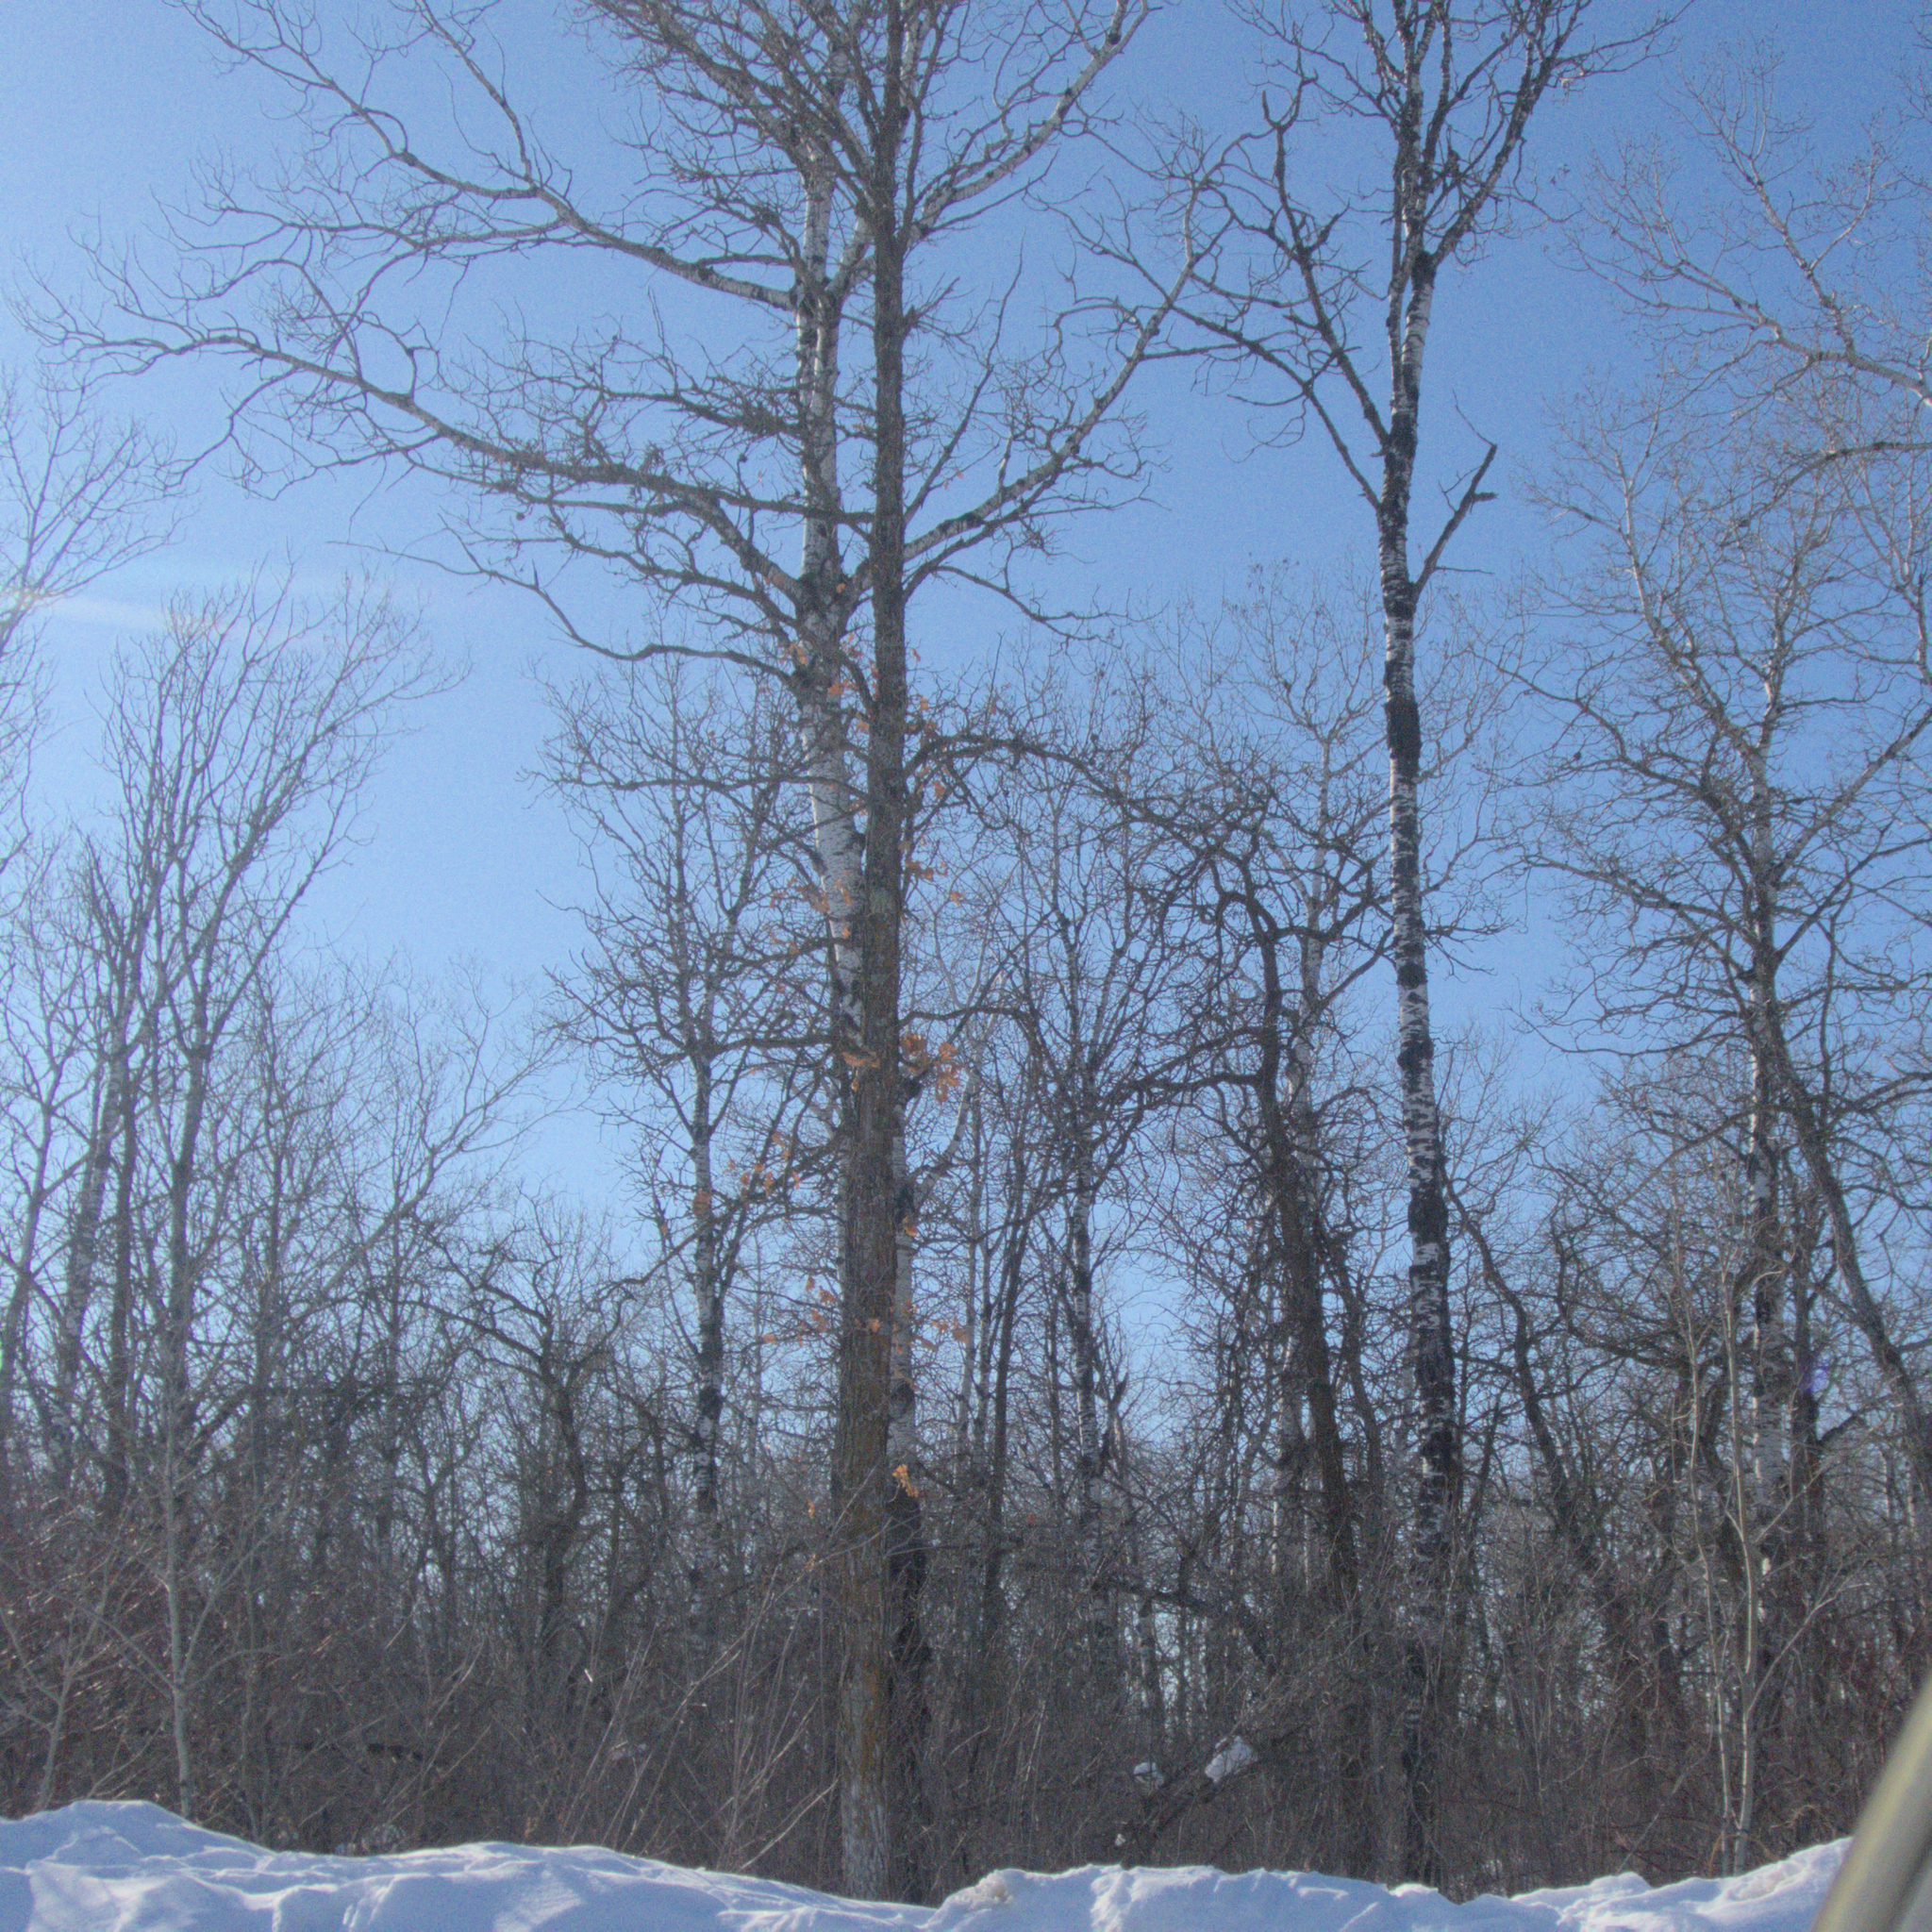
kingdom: Plantae
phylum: Tracheophyta
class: Magnoliopsida
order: Fagales
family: Fagaceae
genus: Quercus
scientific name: Quercus macrocarpa
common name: Bur oak
